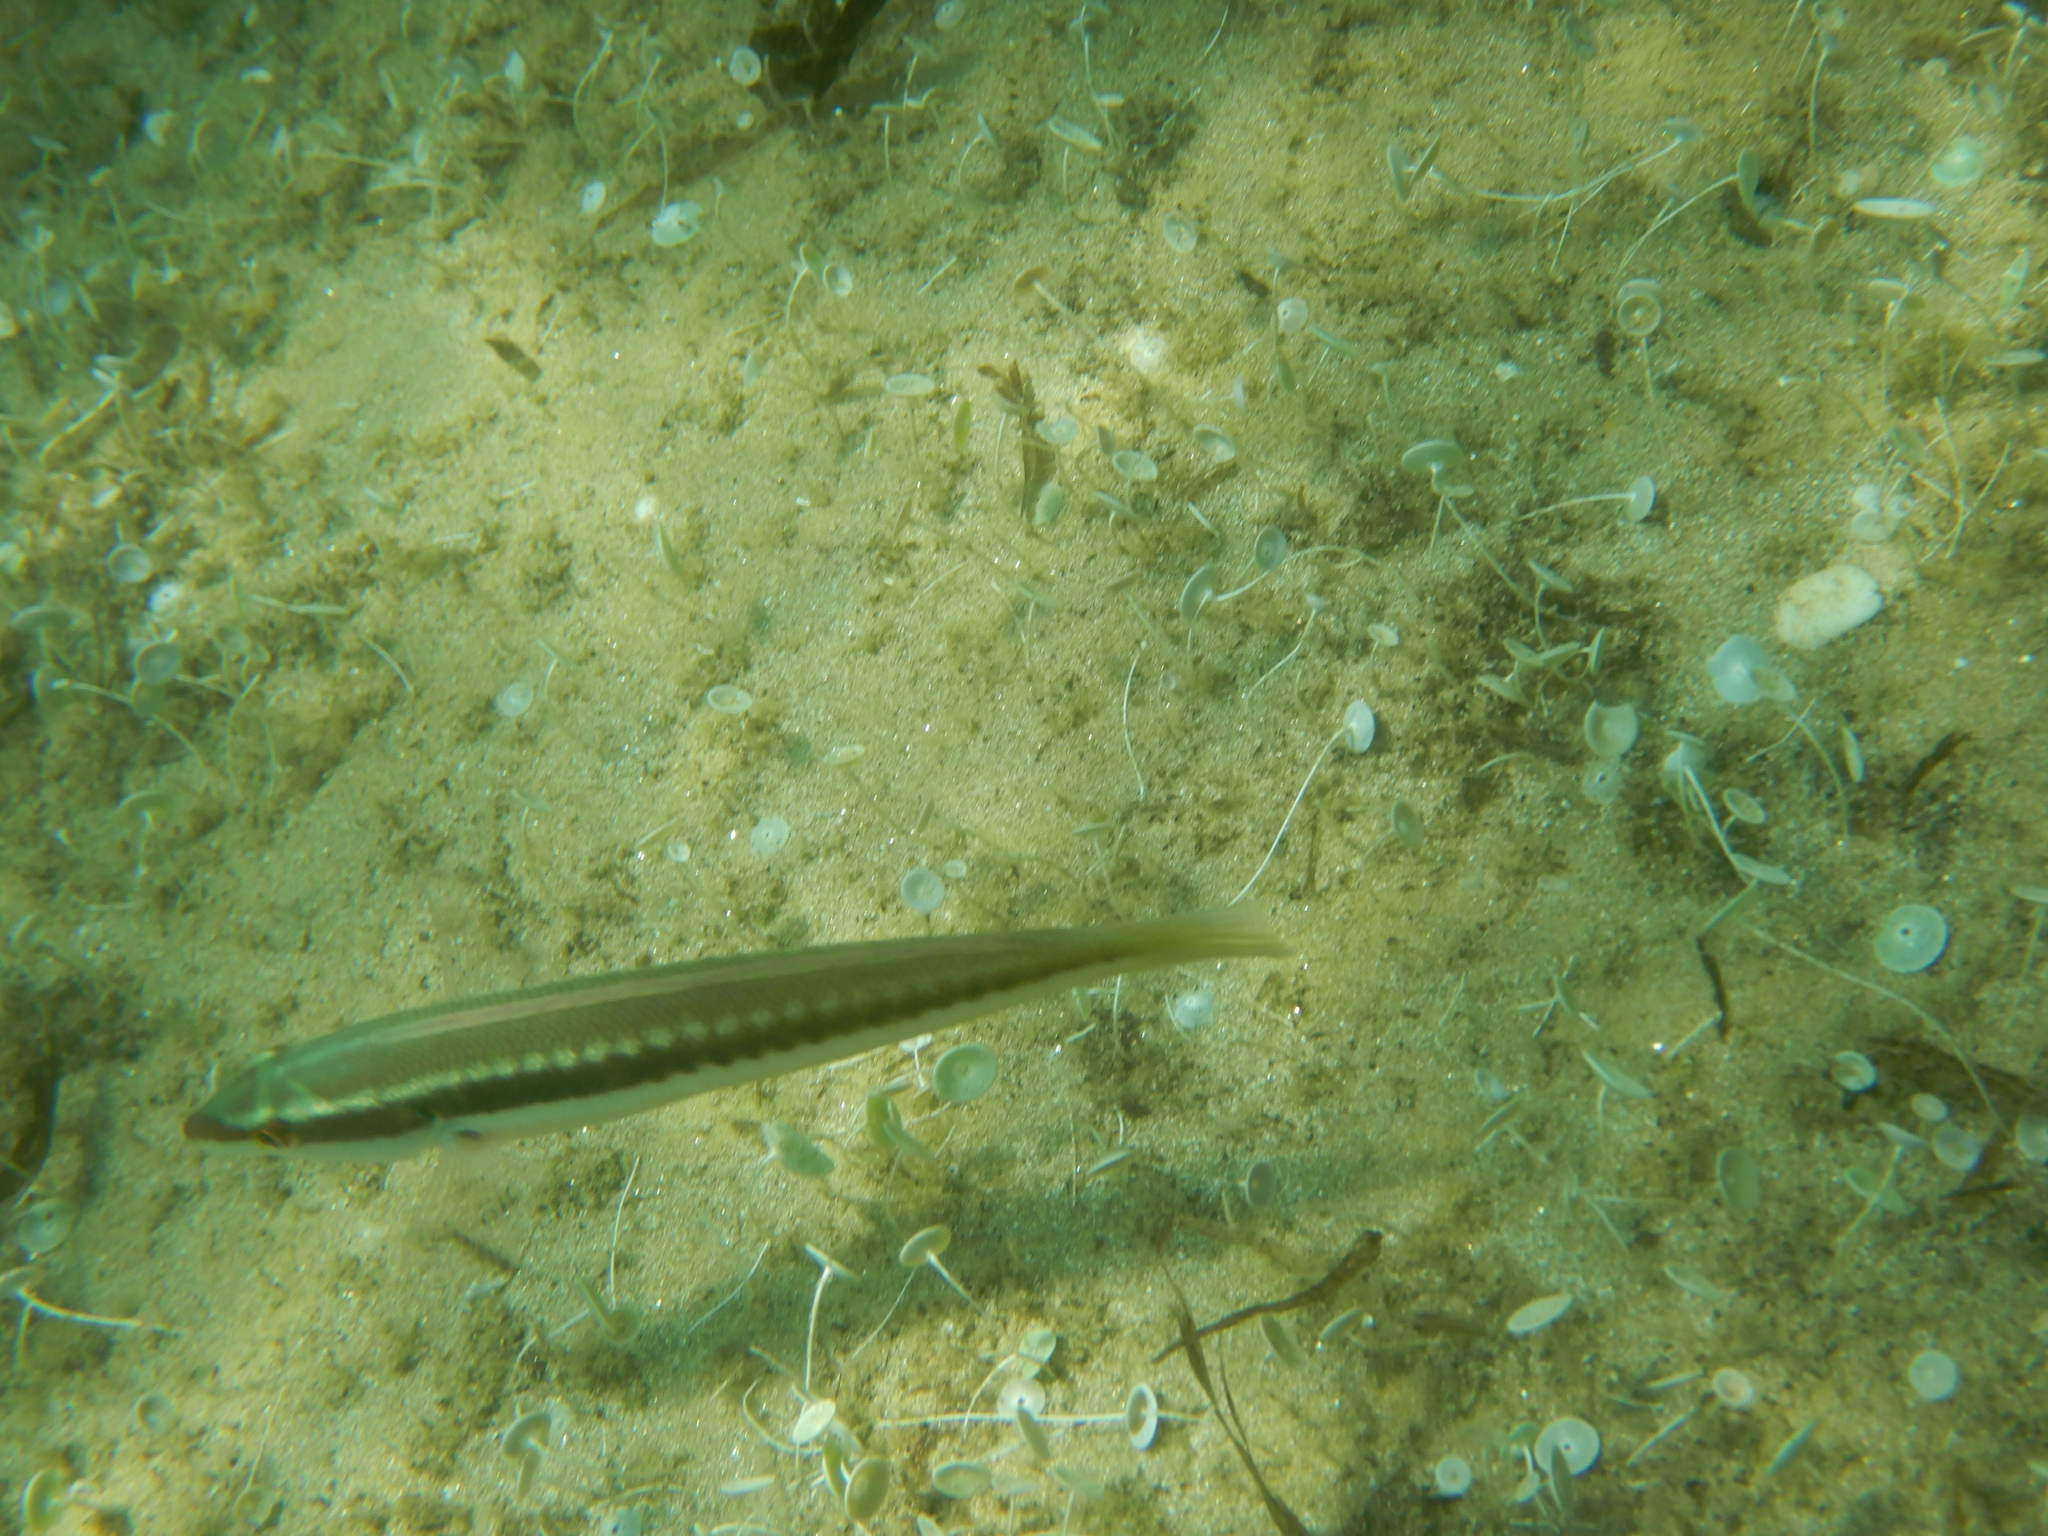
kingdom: Animalia
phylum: Chordata
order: Perciformes
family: Labridae
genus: Coris
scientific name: Coris julis
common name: Rainbow wrasse
